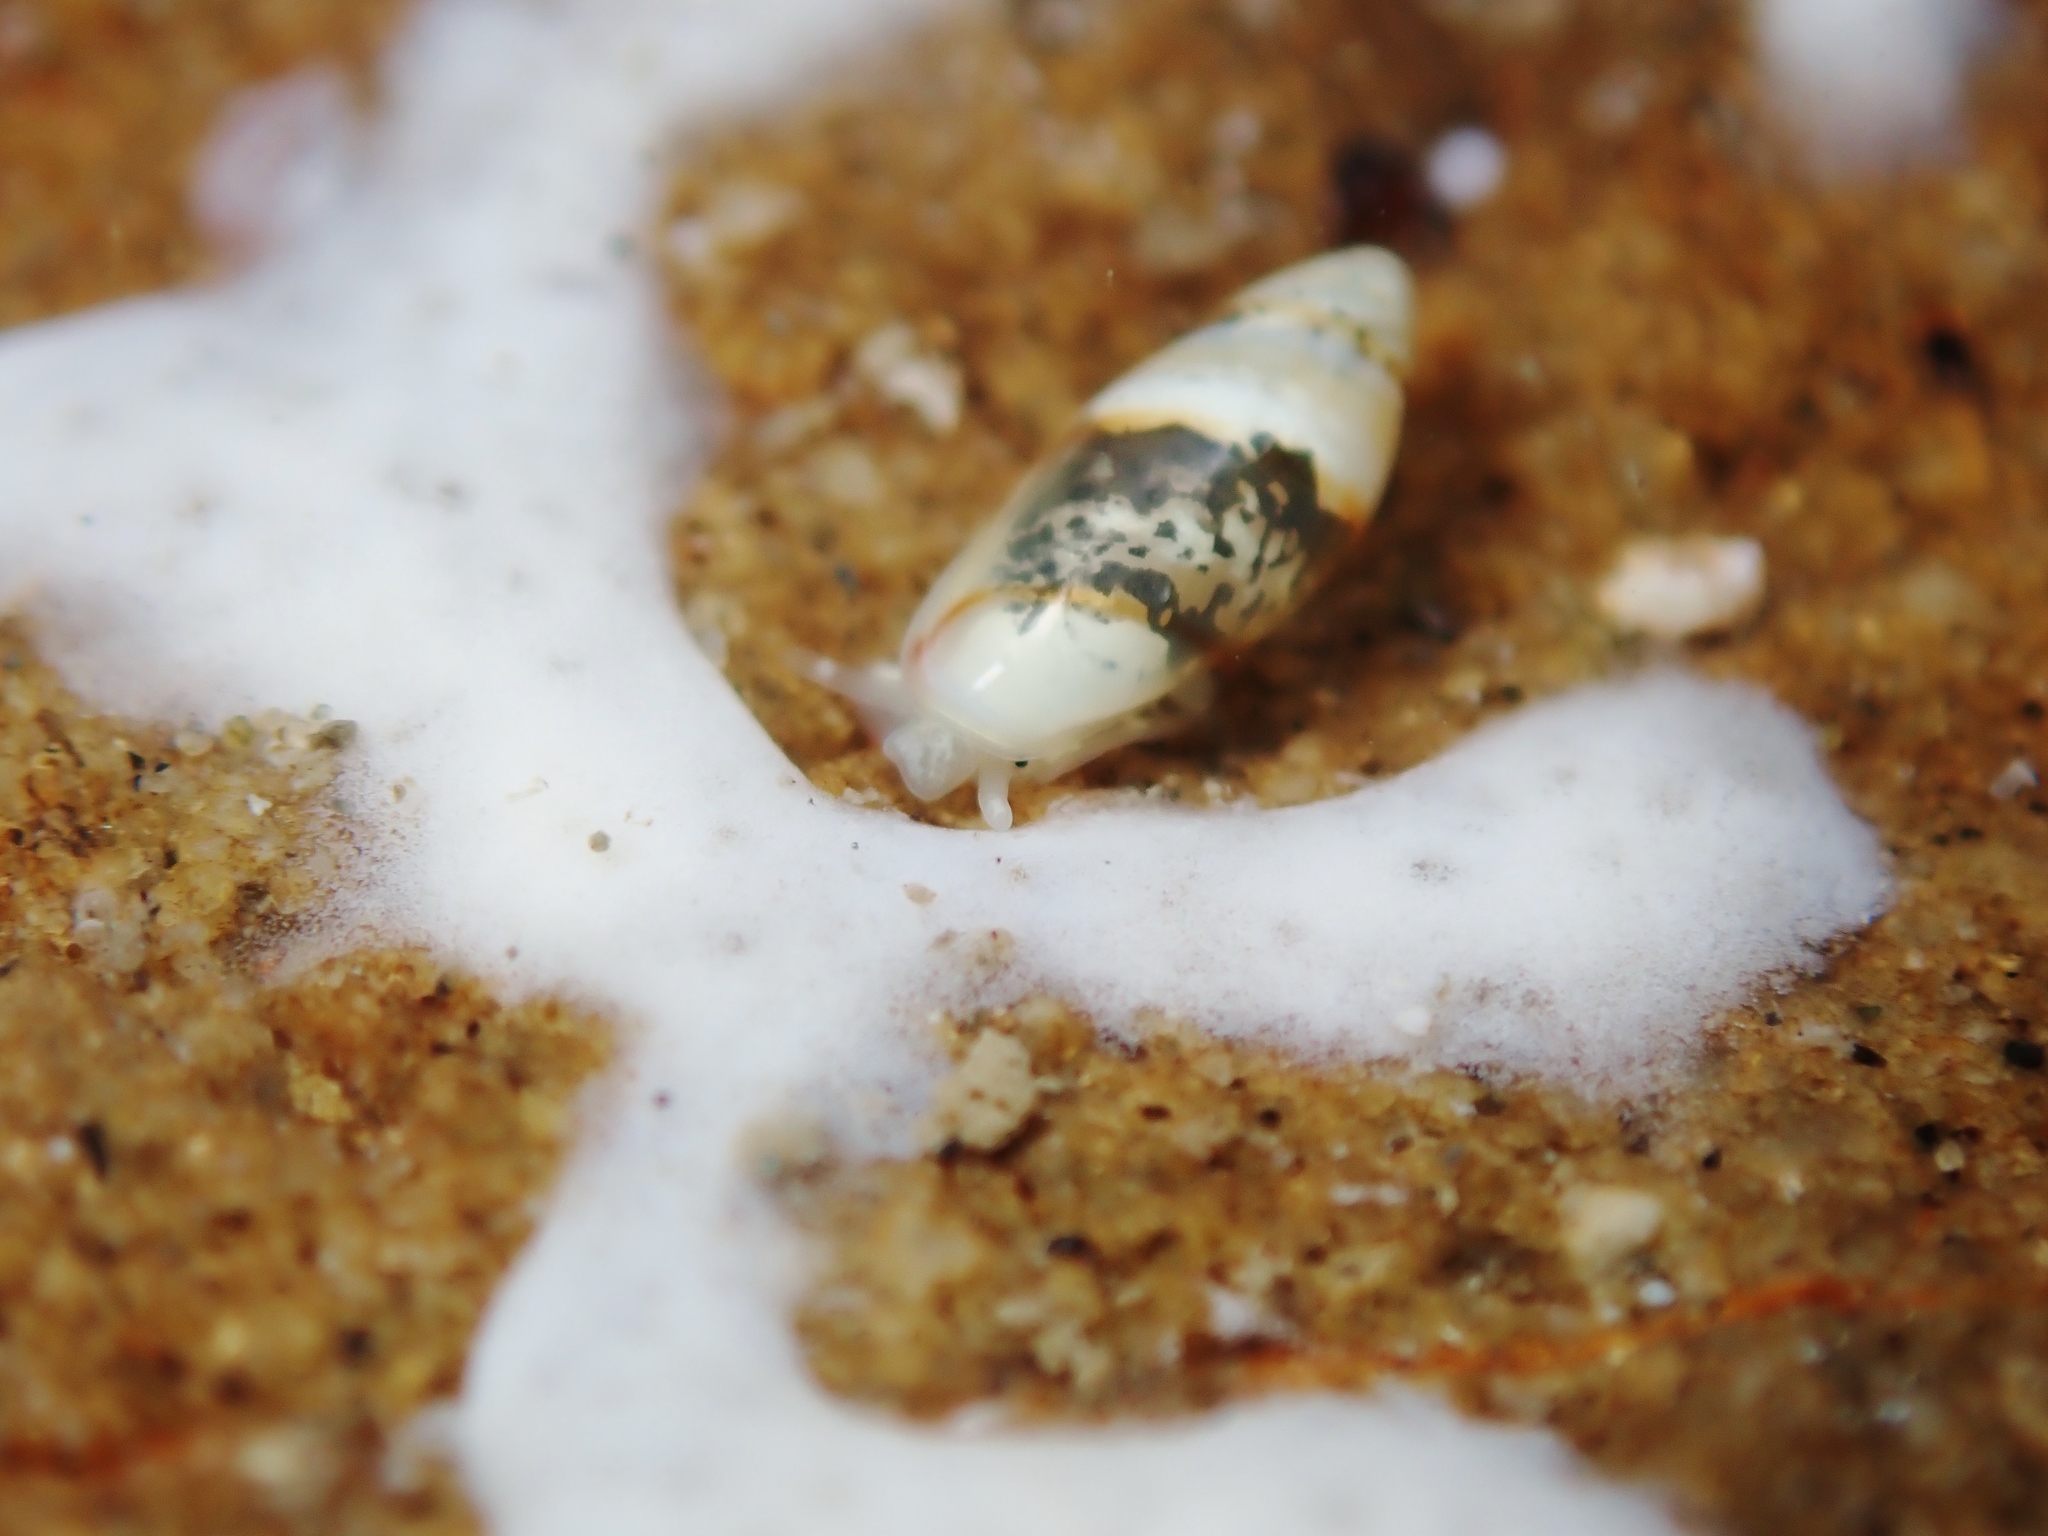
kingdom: Animalia
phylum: Mollusca
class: Gastropoda
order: Neogastropoda
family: Marginellidae
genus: Dentimargo
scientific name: Dentimargo cairoma
